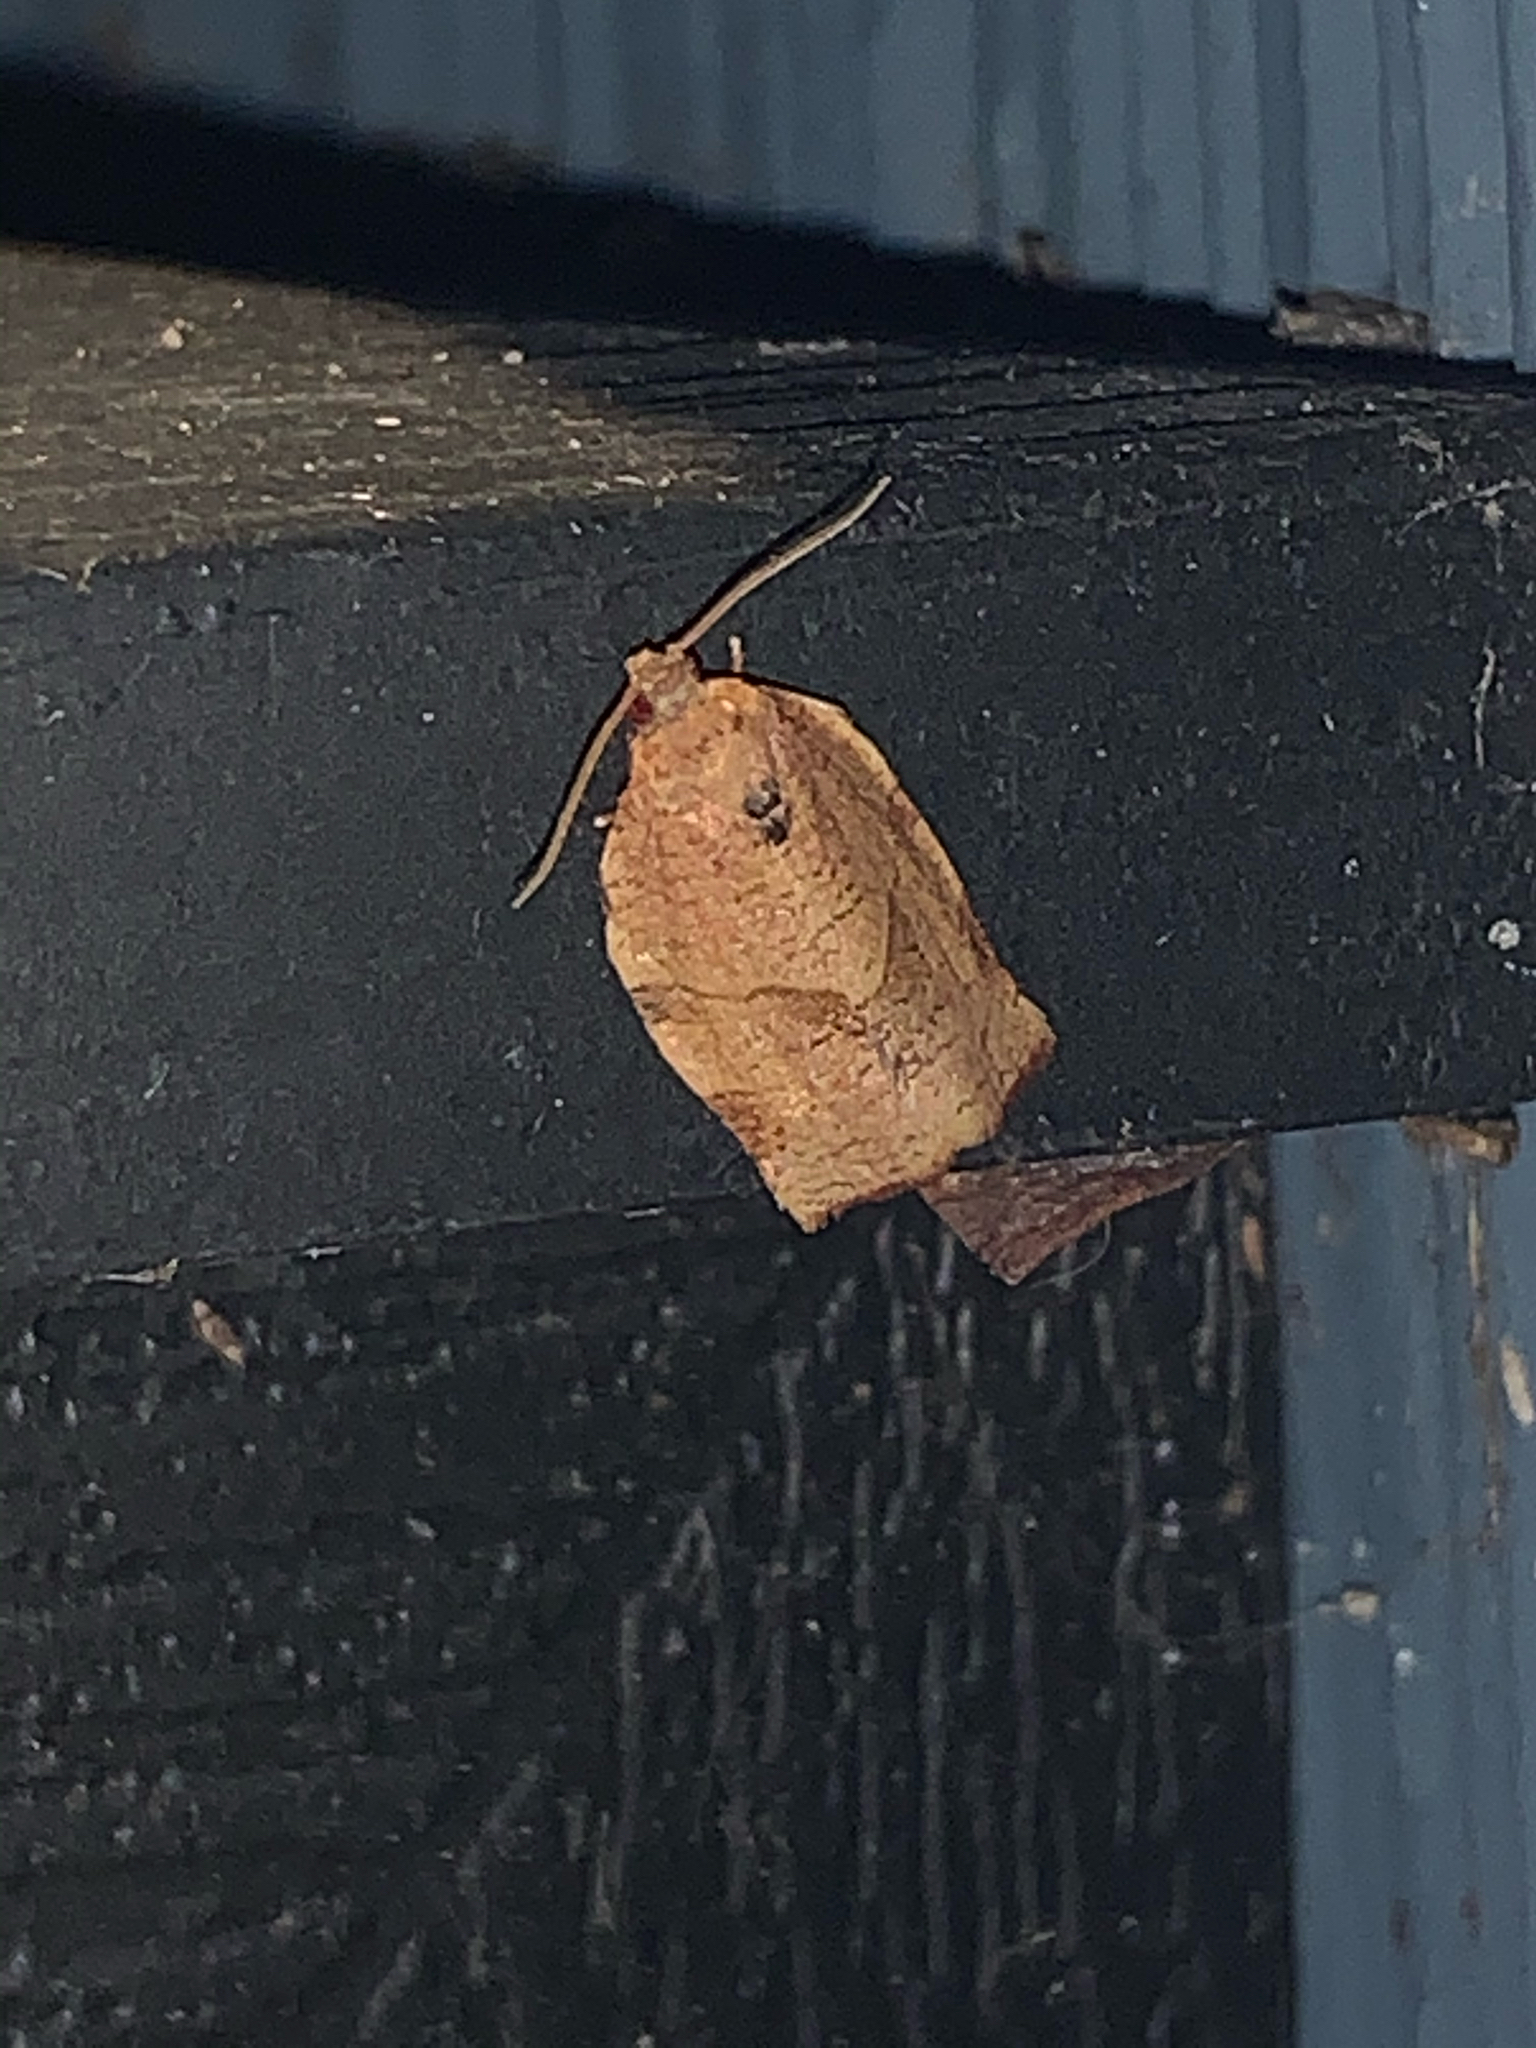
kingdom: Animalia
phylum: Arthropoda
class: Insecta
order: Lepidoptera
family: Tortricidae
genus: Choristoneura
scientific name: Choristoneura rosaceana
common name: Oblique-banded leafroller moth
